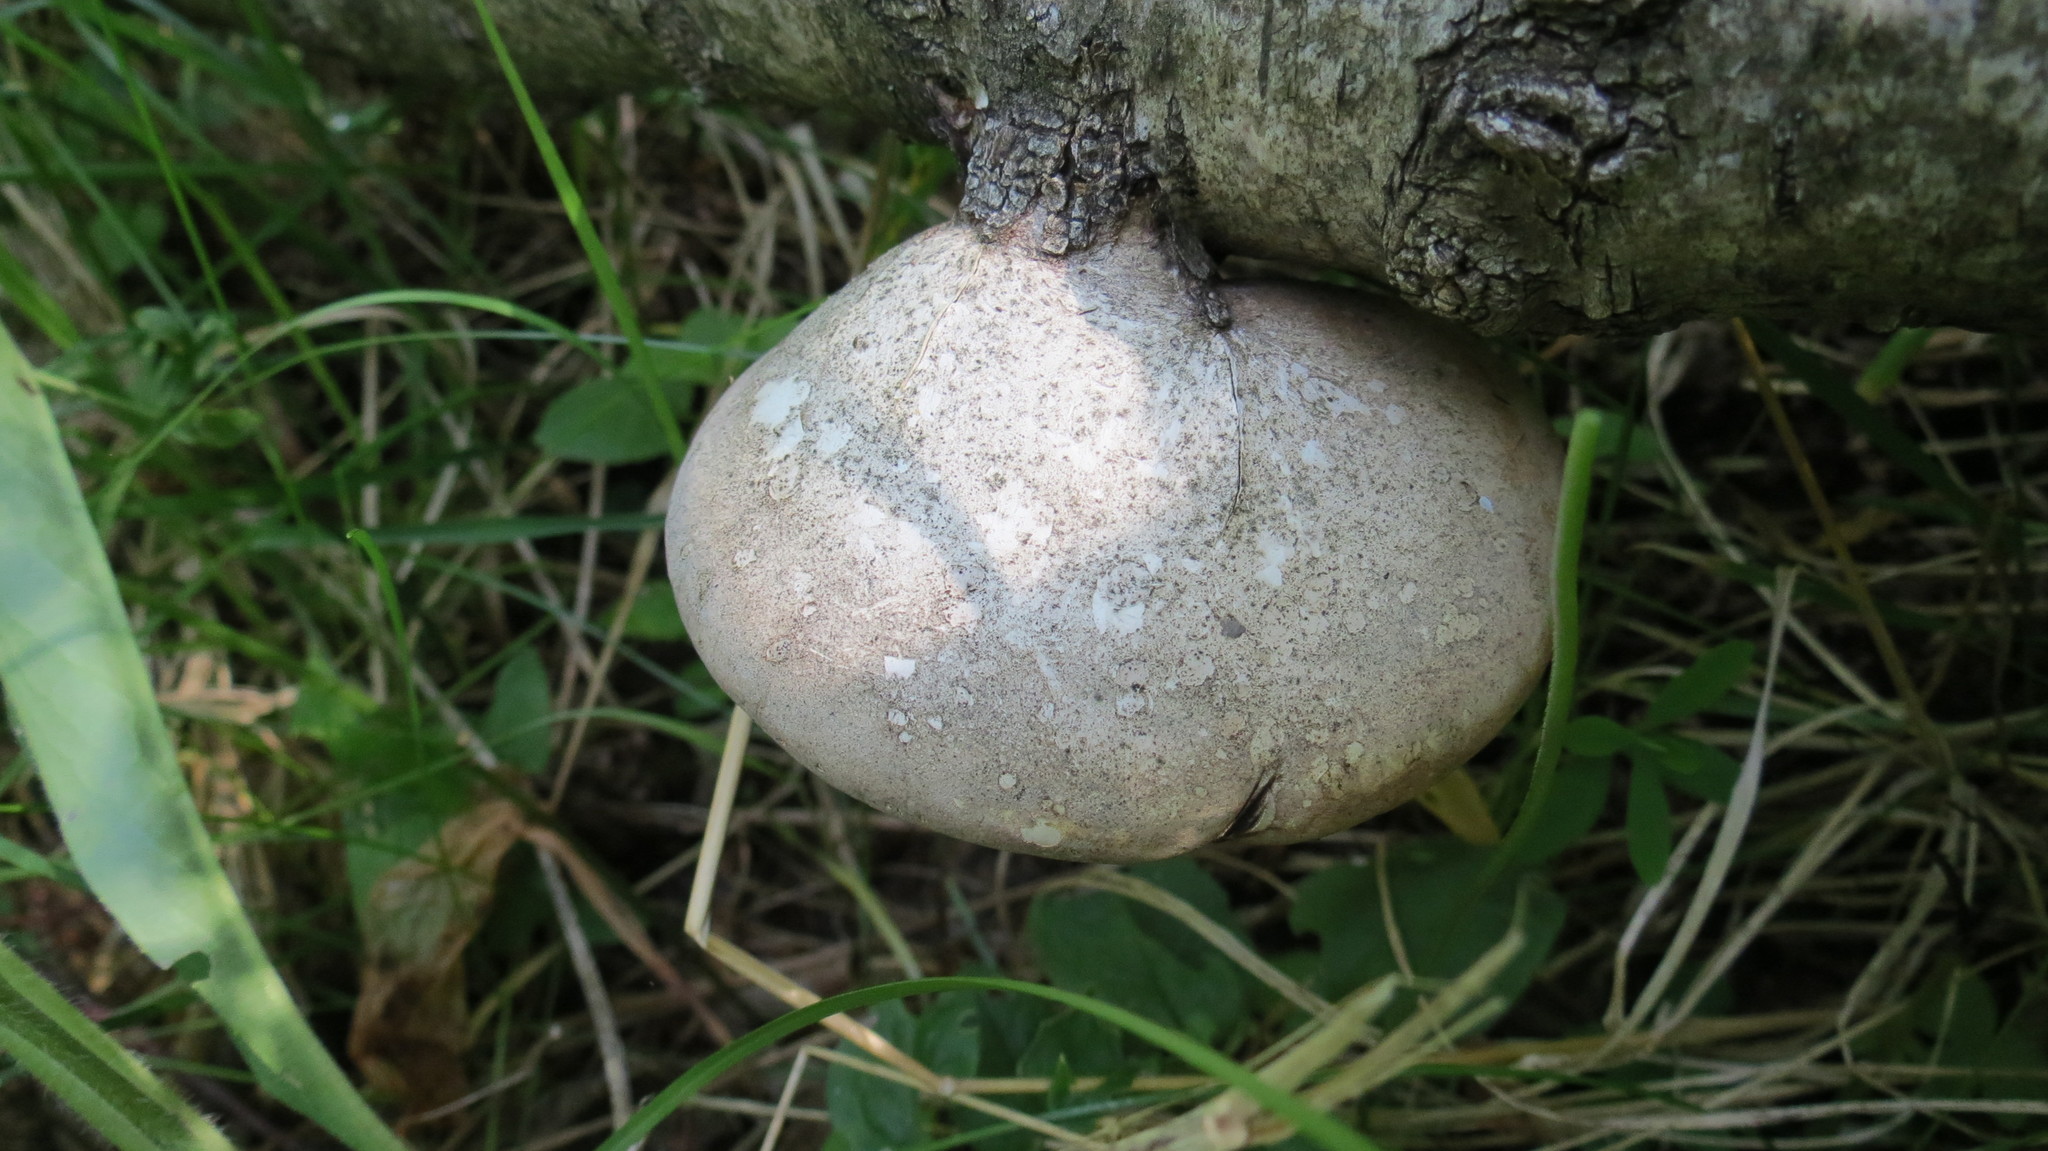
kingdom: Fungi
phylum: Basidiomycota
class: Agaricomycetes
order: Polyporales
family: Fomitopsidaceae
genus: Fomitopsis
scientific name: Fomitopsis betulina
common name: Birch polypore
